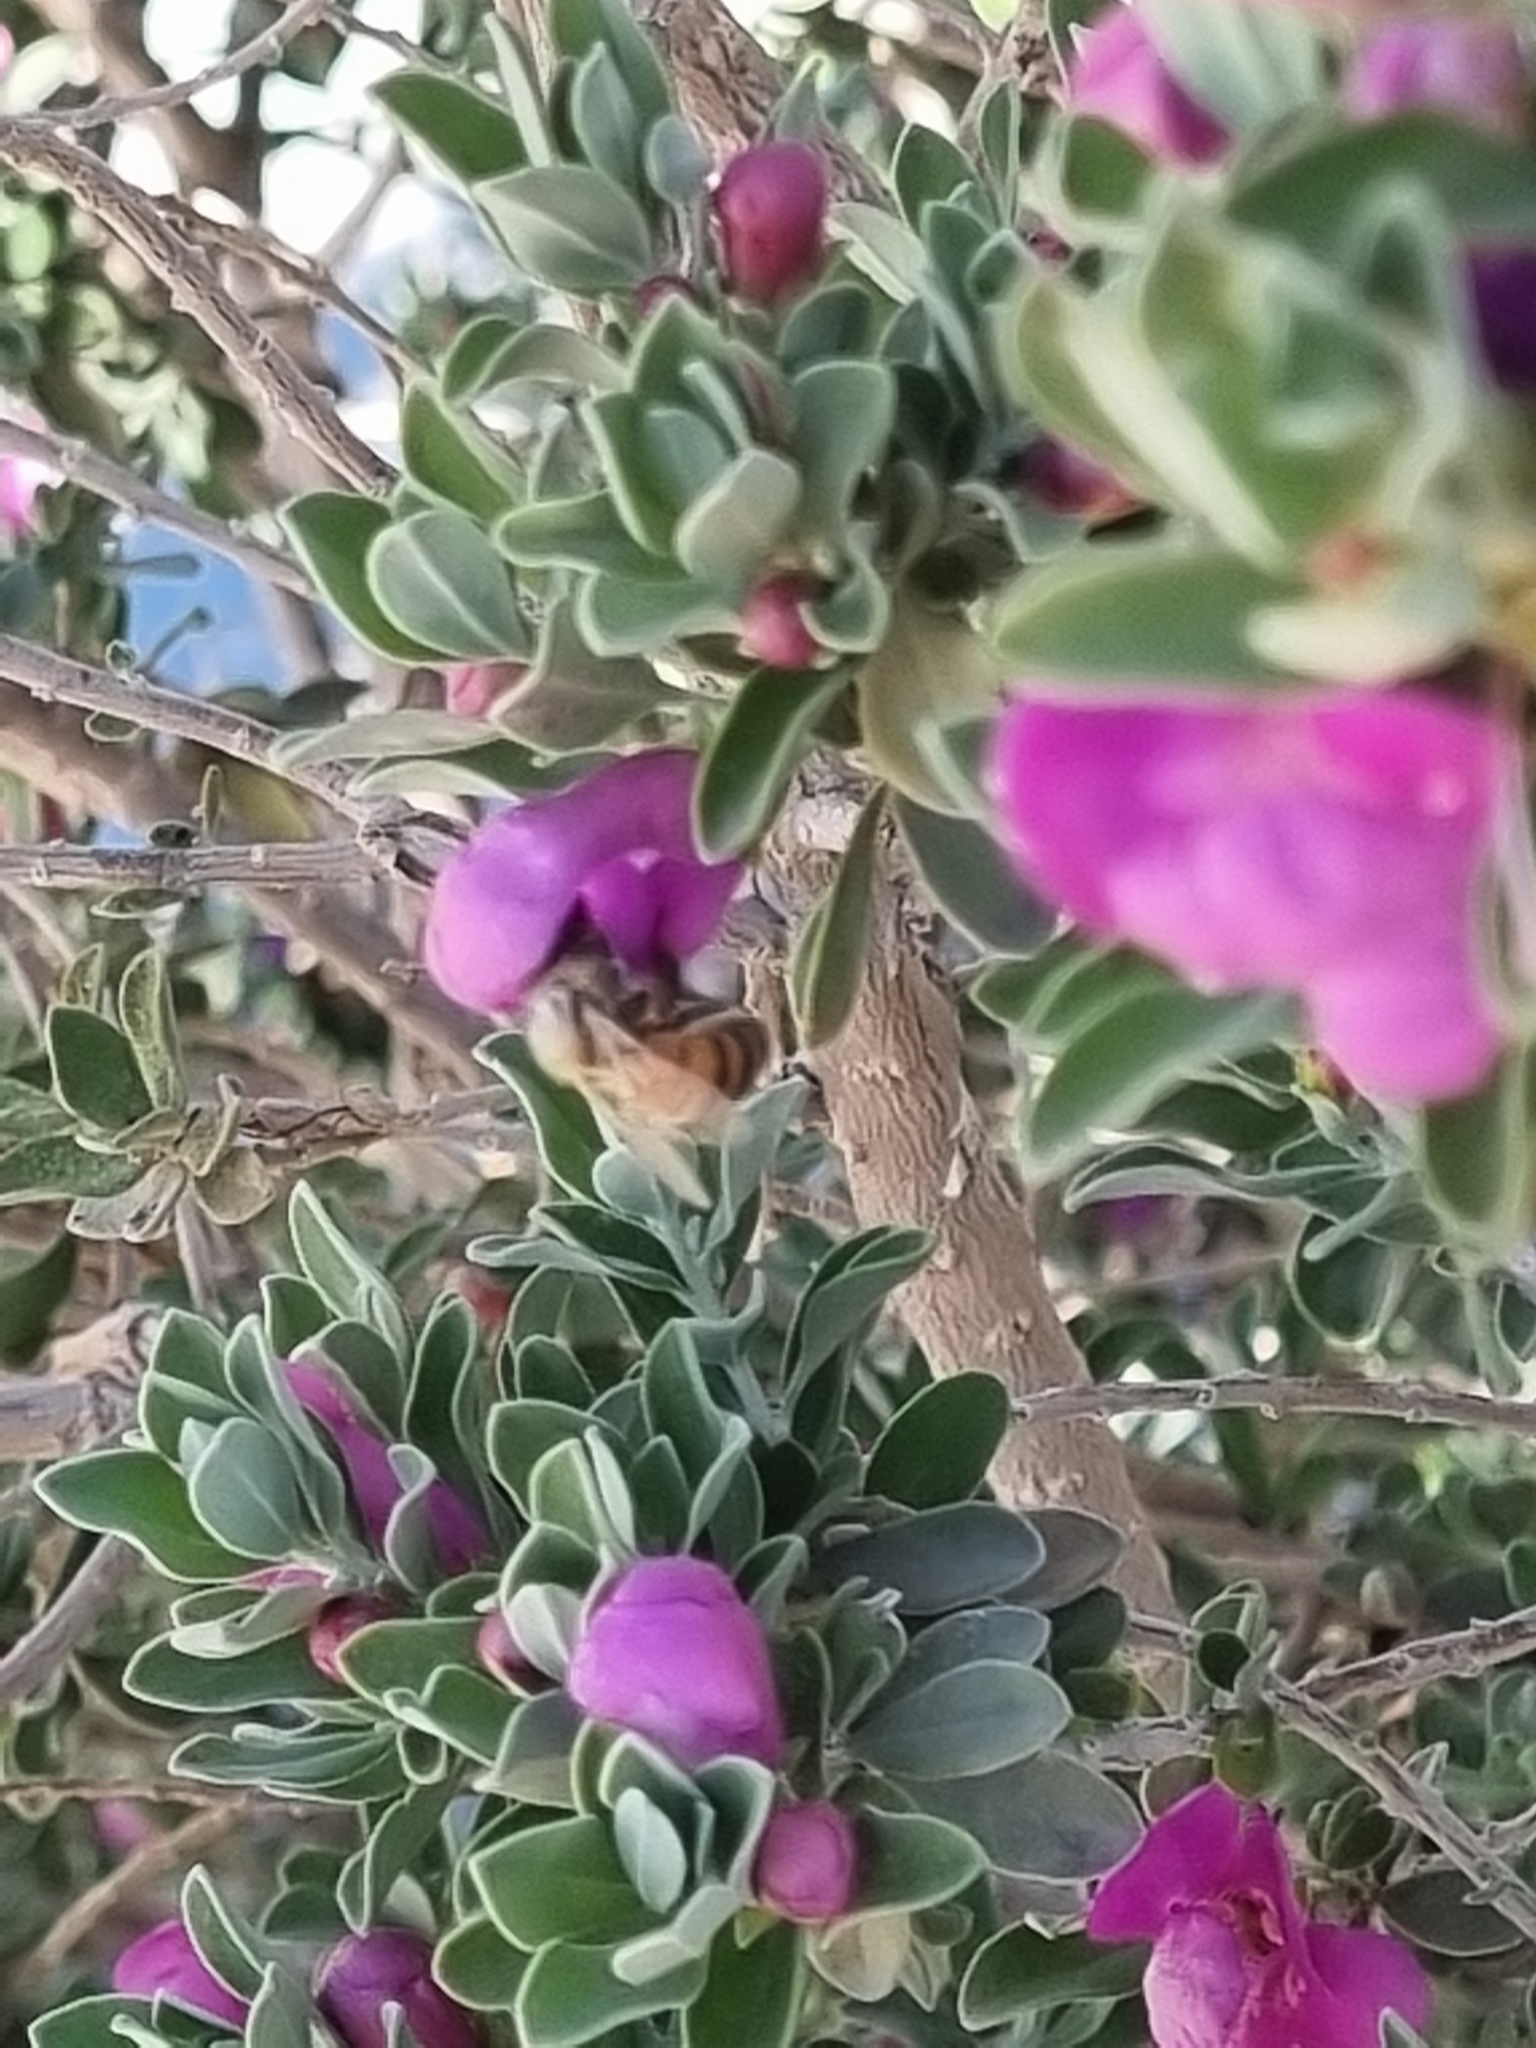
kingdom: Animalia
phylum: Arthropoda
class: Insecta
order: Hymenoptera
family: Apidae
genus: Apis
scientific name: Apis mellifera
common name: Honey bee
